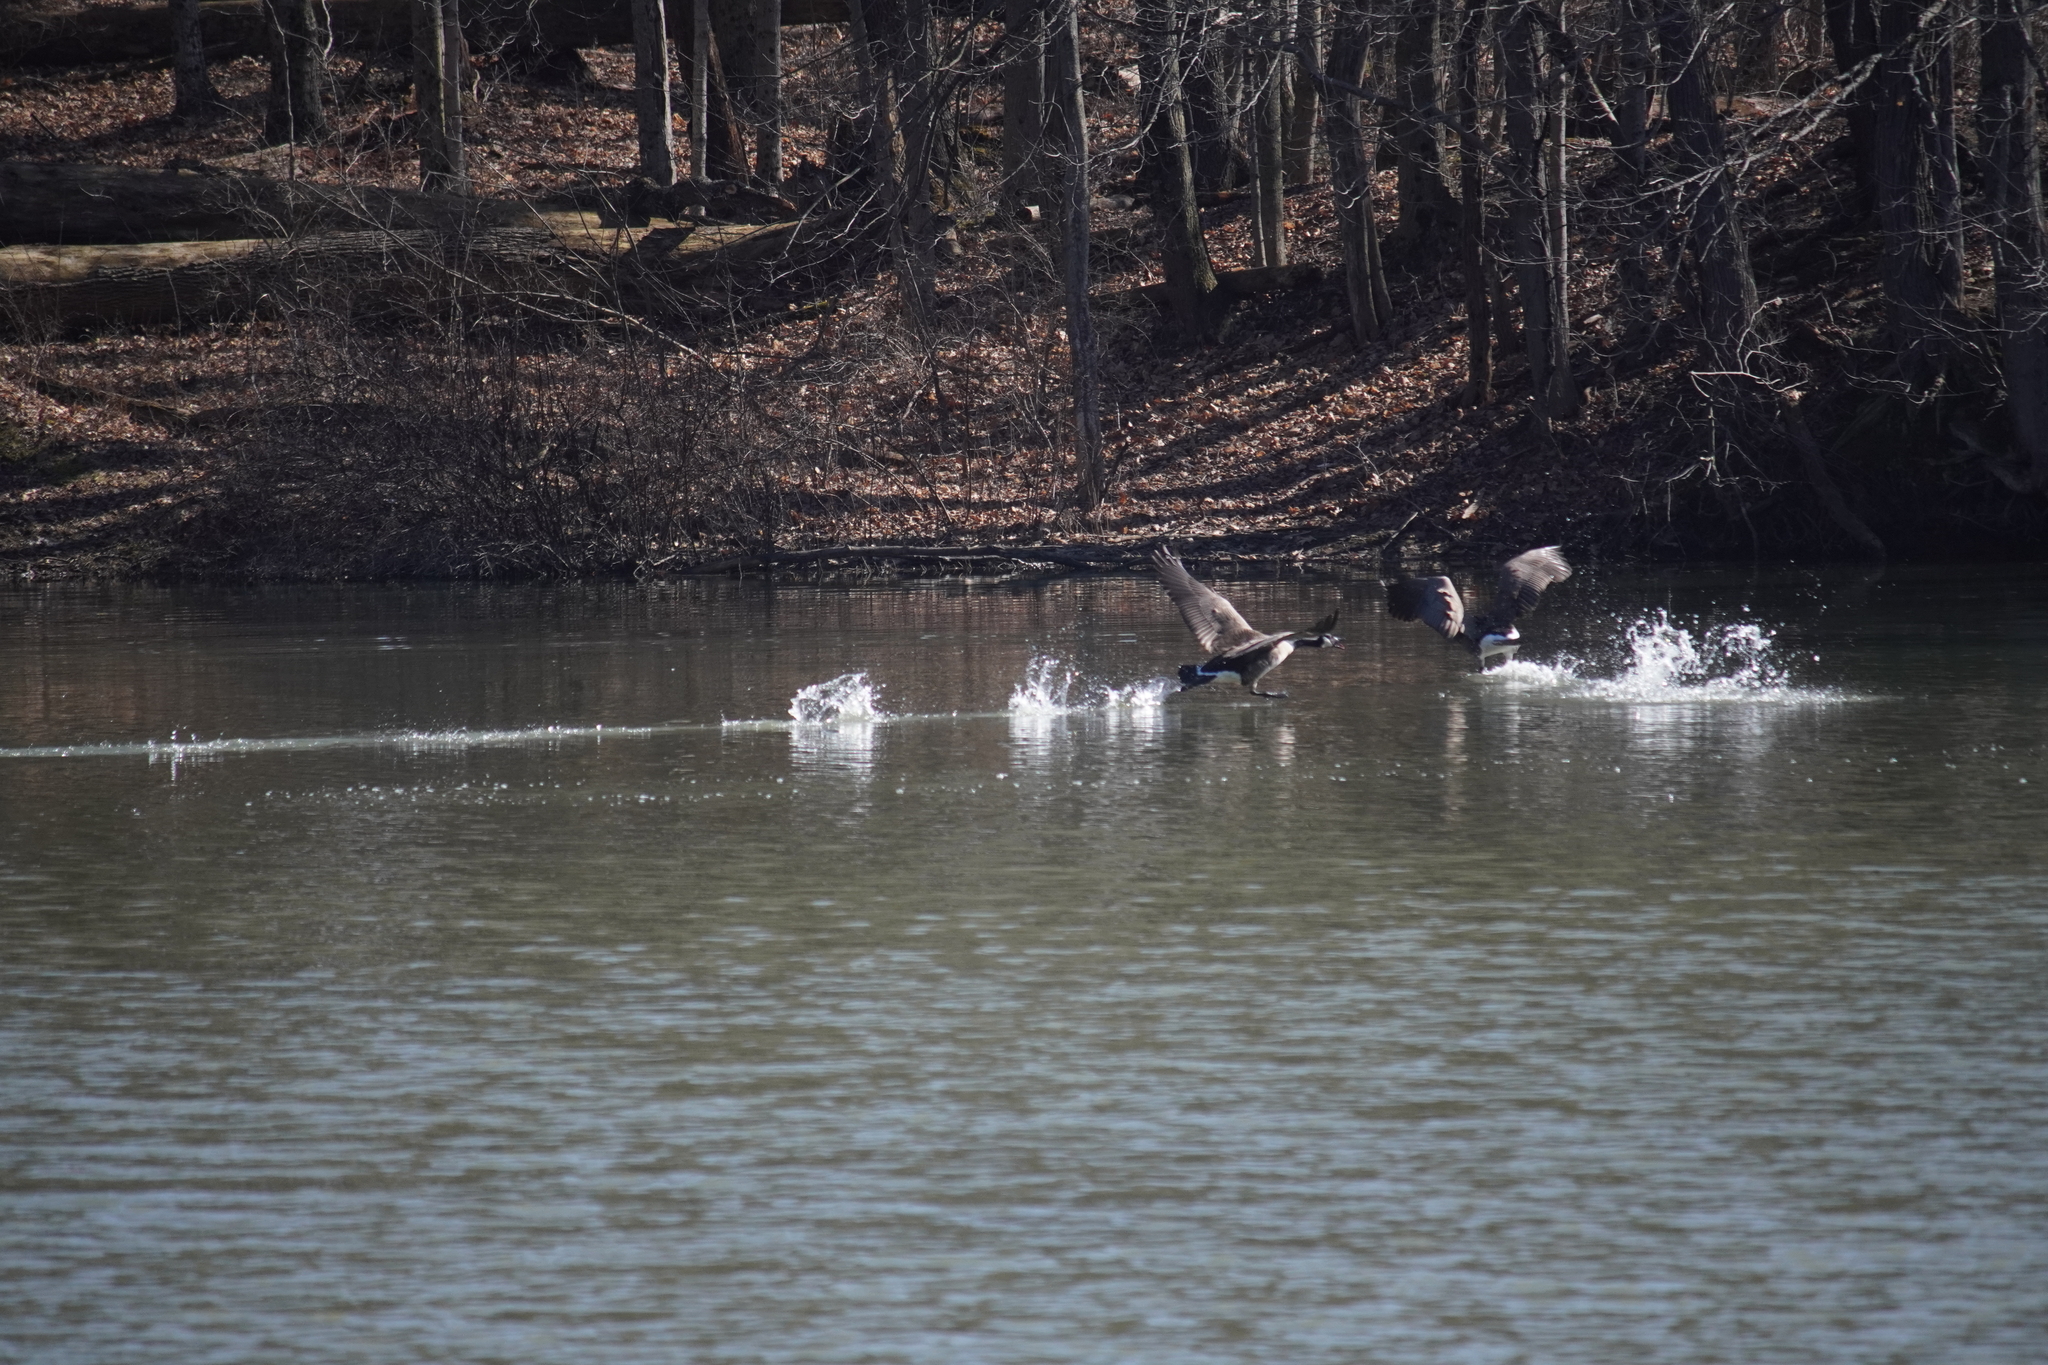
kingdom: Animalia
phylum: Chordata
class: Aves
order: Anseriformes
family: Anatidae
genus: Branta
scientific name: Branta canadensis
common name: Canada goose
